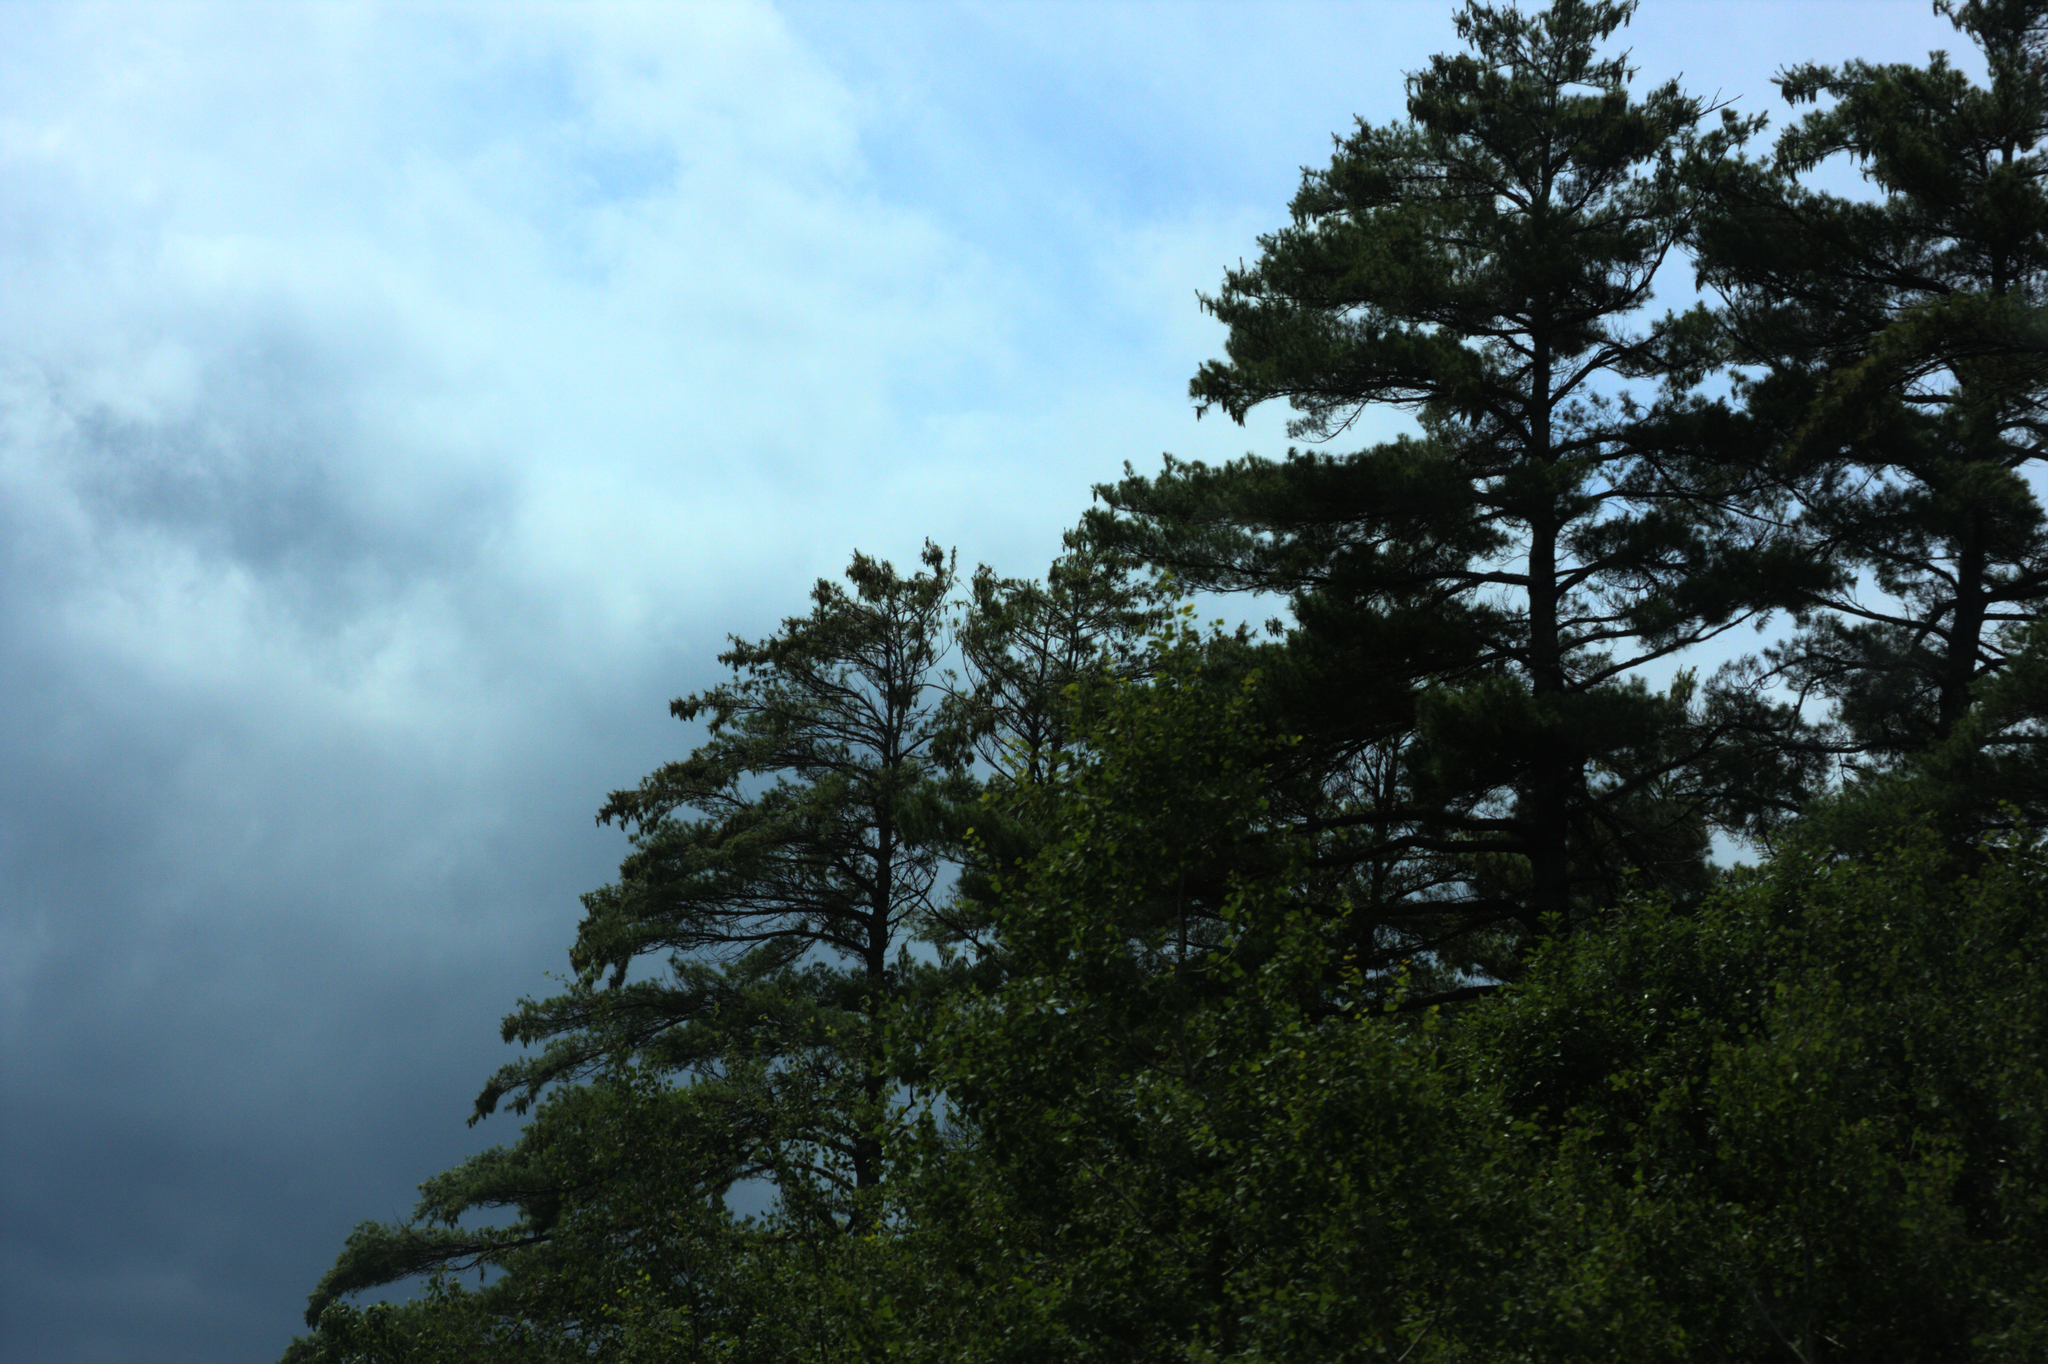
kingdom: Plantae
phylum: Tracheophyta
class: Pinopsida
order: Pinales
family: Pinaceae
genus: Pinus
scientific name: Pinus strobus
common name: Weymouth pine
